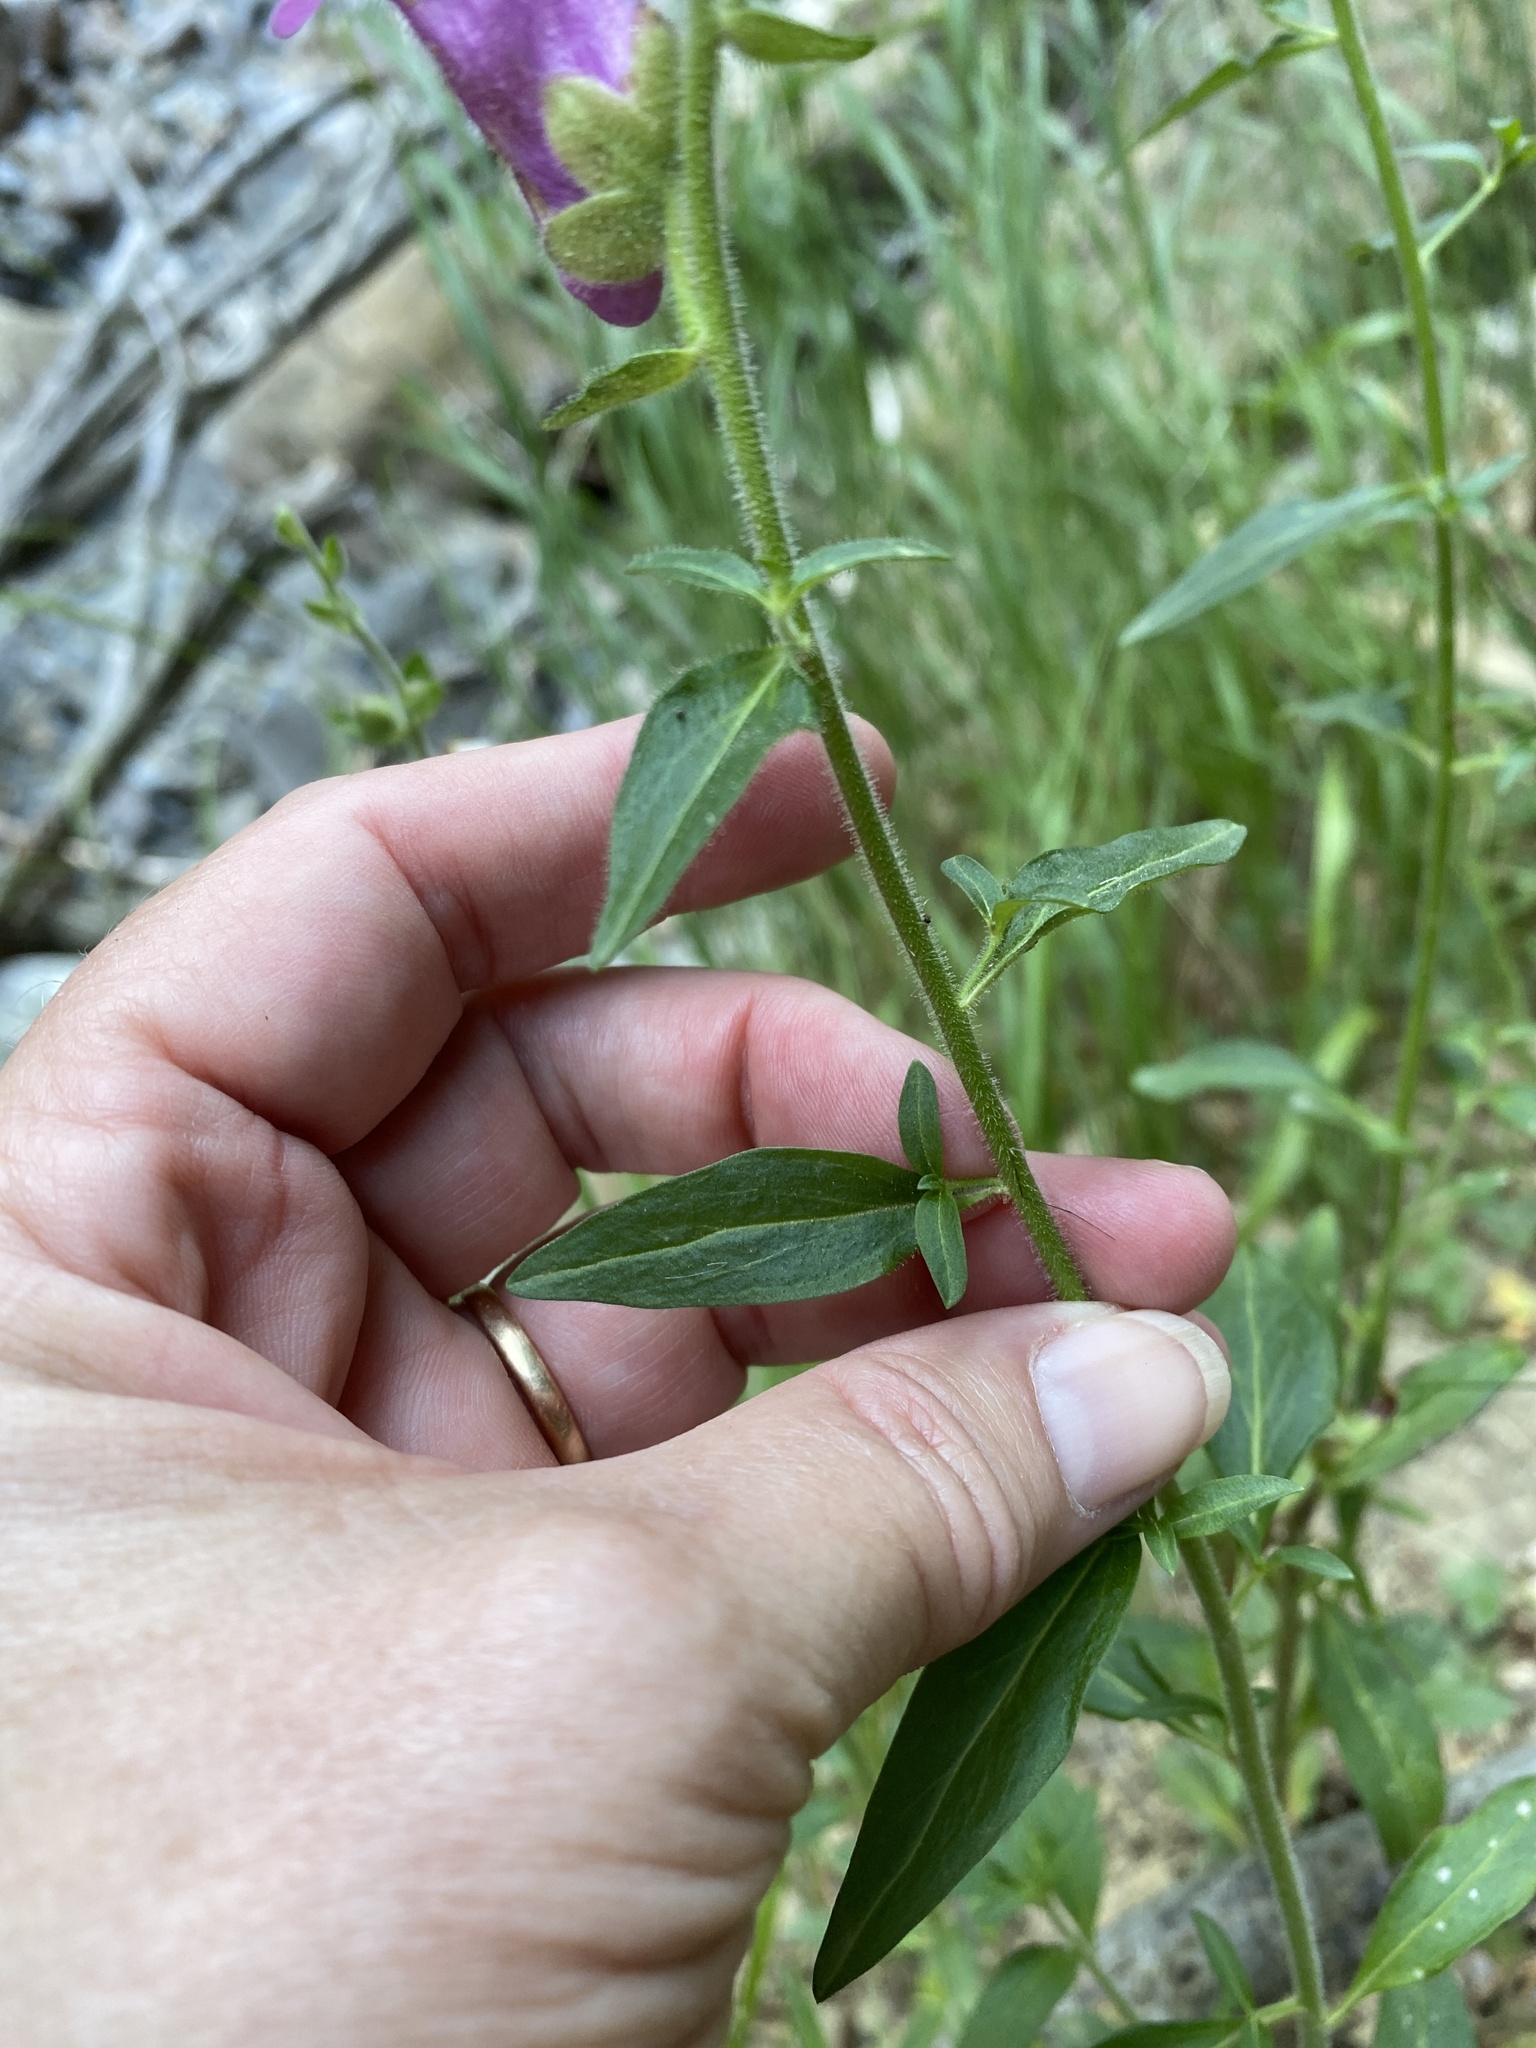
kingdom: Plantae
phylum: Tracheophyta
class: Magnoliopsida
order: Lamiales
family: Plantaginaceae
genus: Antirrhinum
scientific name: Antirrhinum majus
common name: Snapdragon
